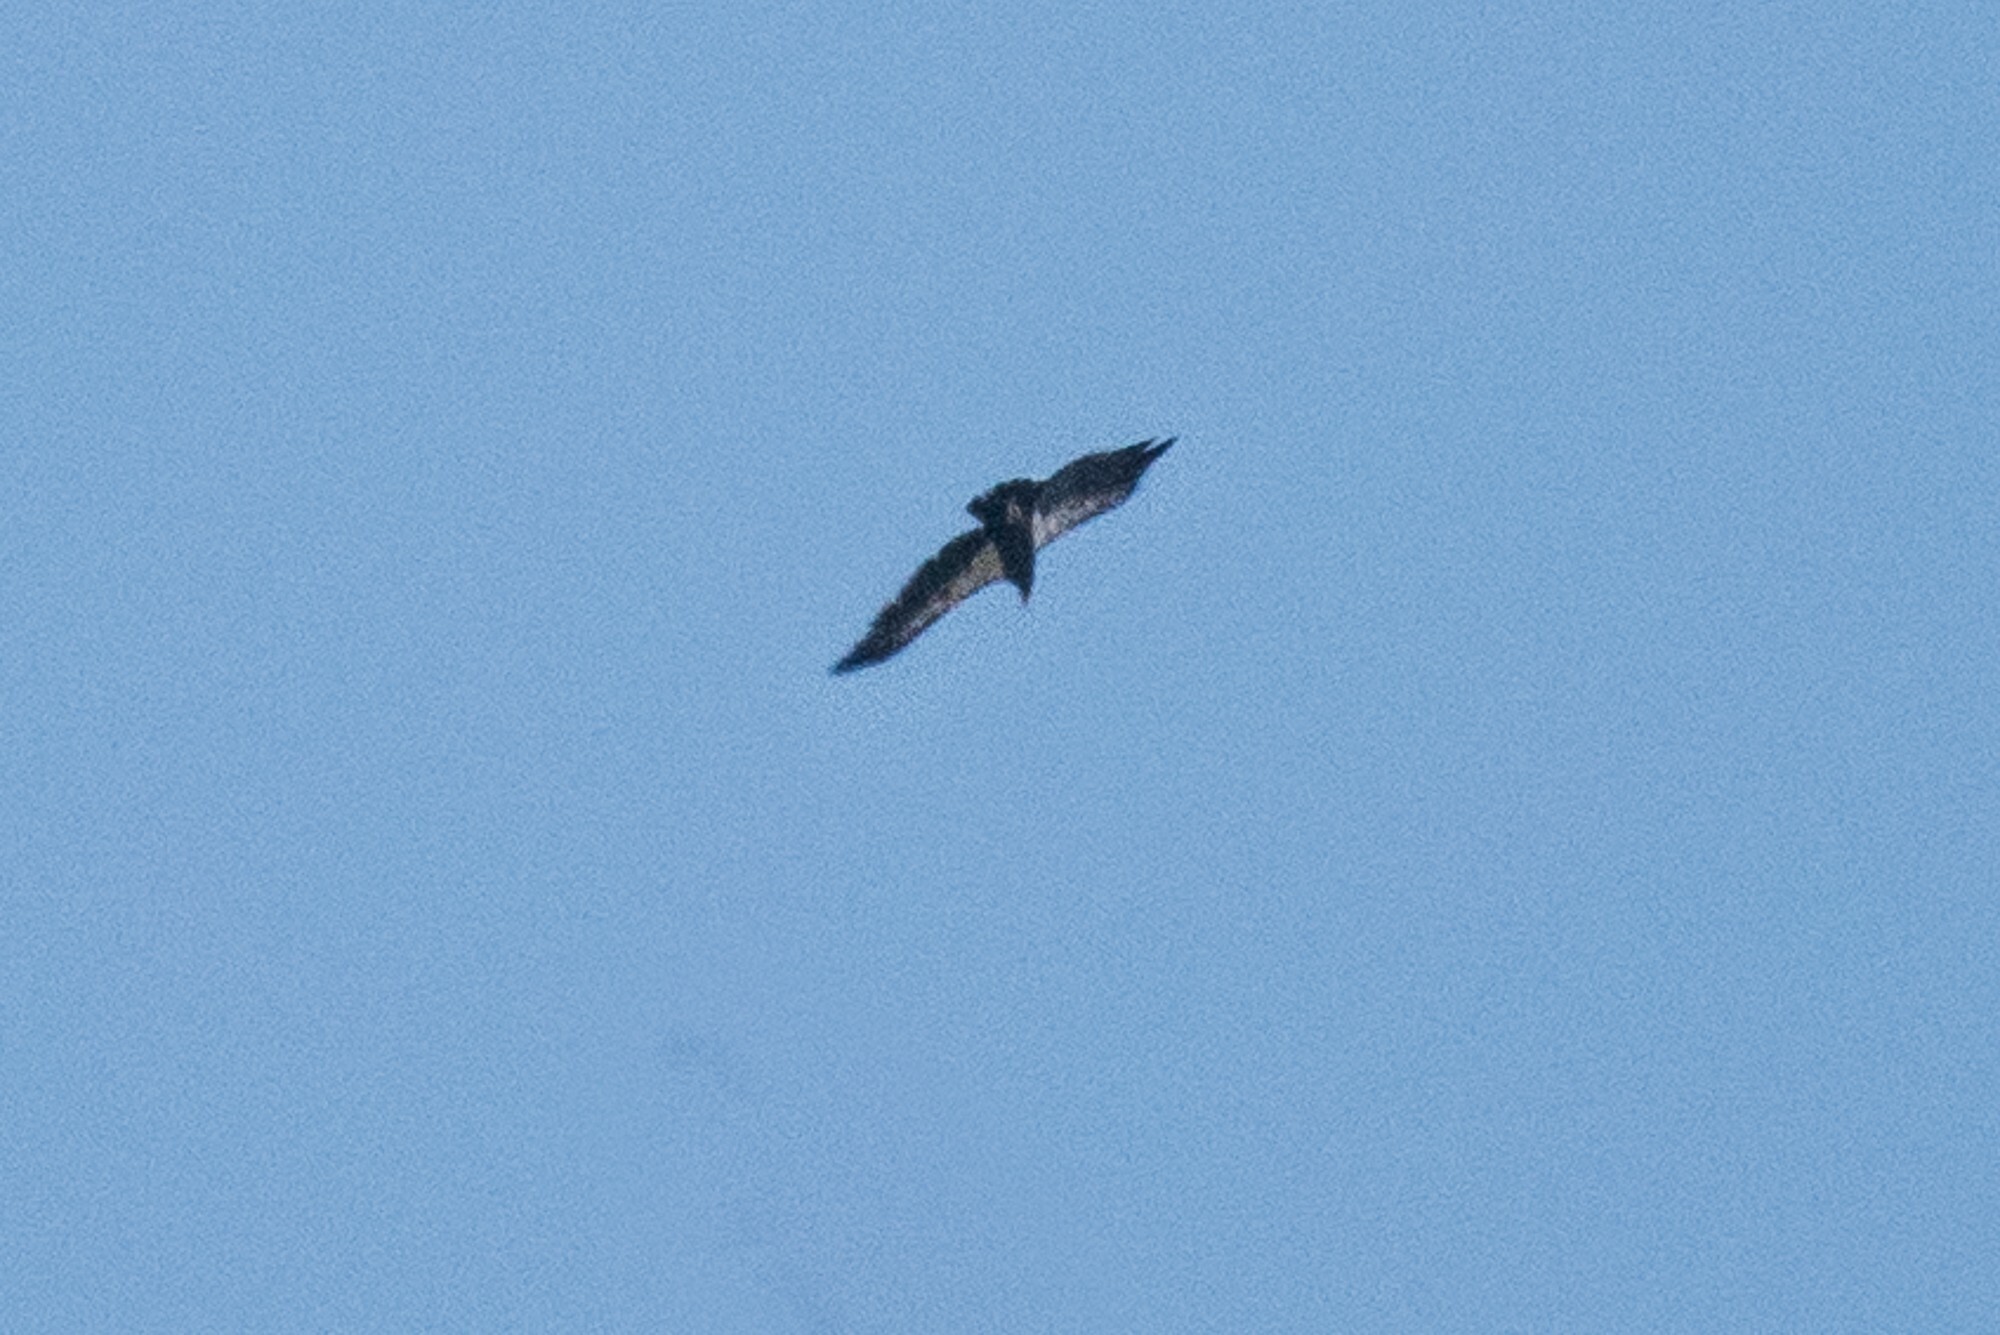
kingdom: Animalia
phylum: Chordata
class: Aves
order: Accipitriformes
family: Cathartidae
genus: Gymnogyps
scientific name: Gymnogyps californianus
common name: California condor
